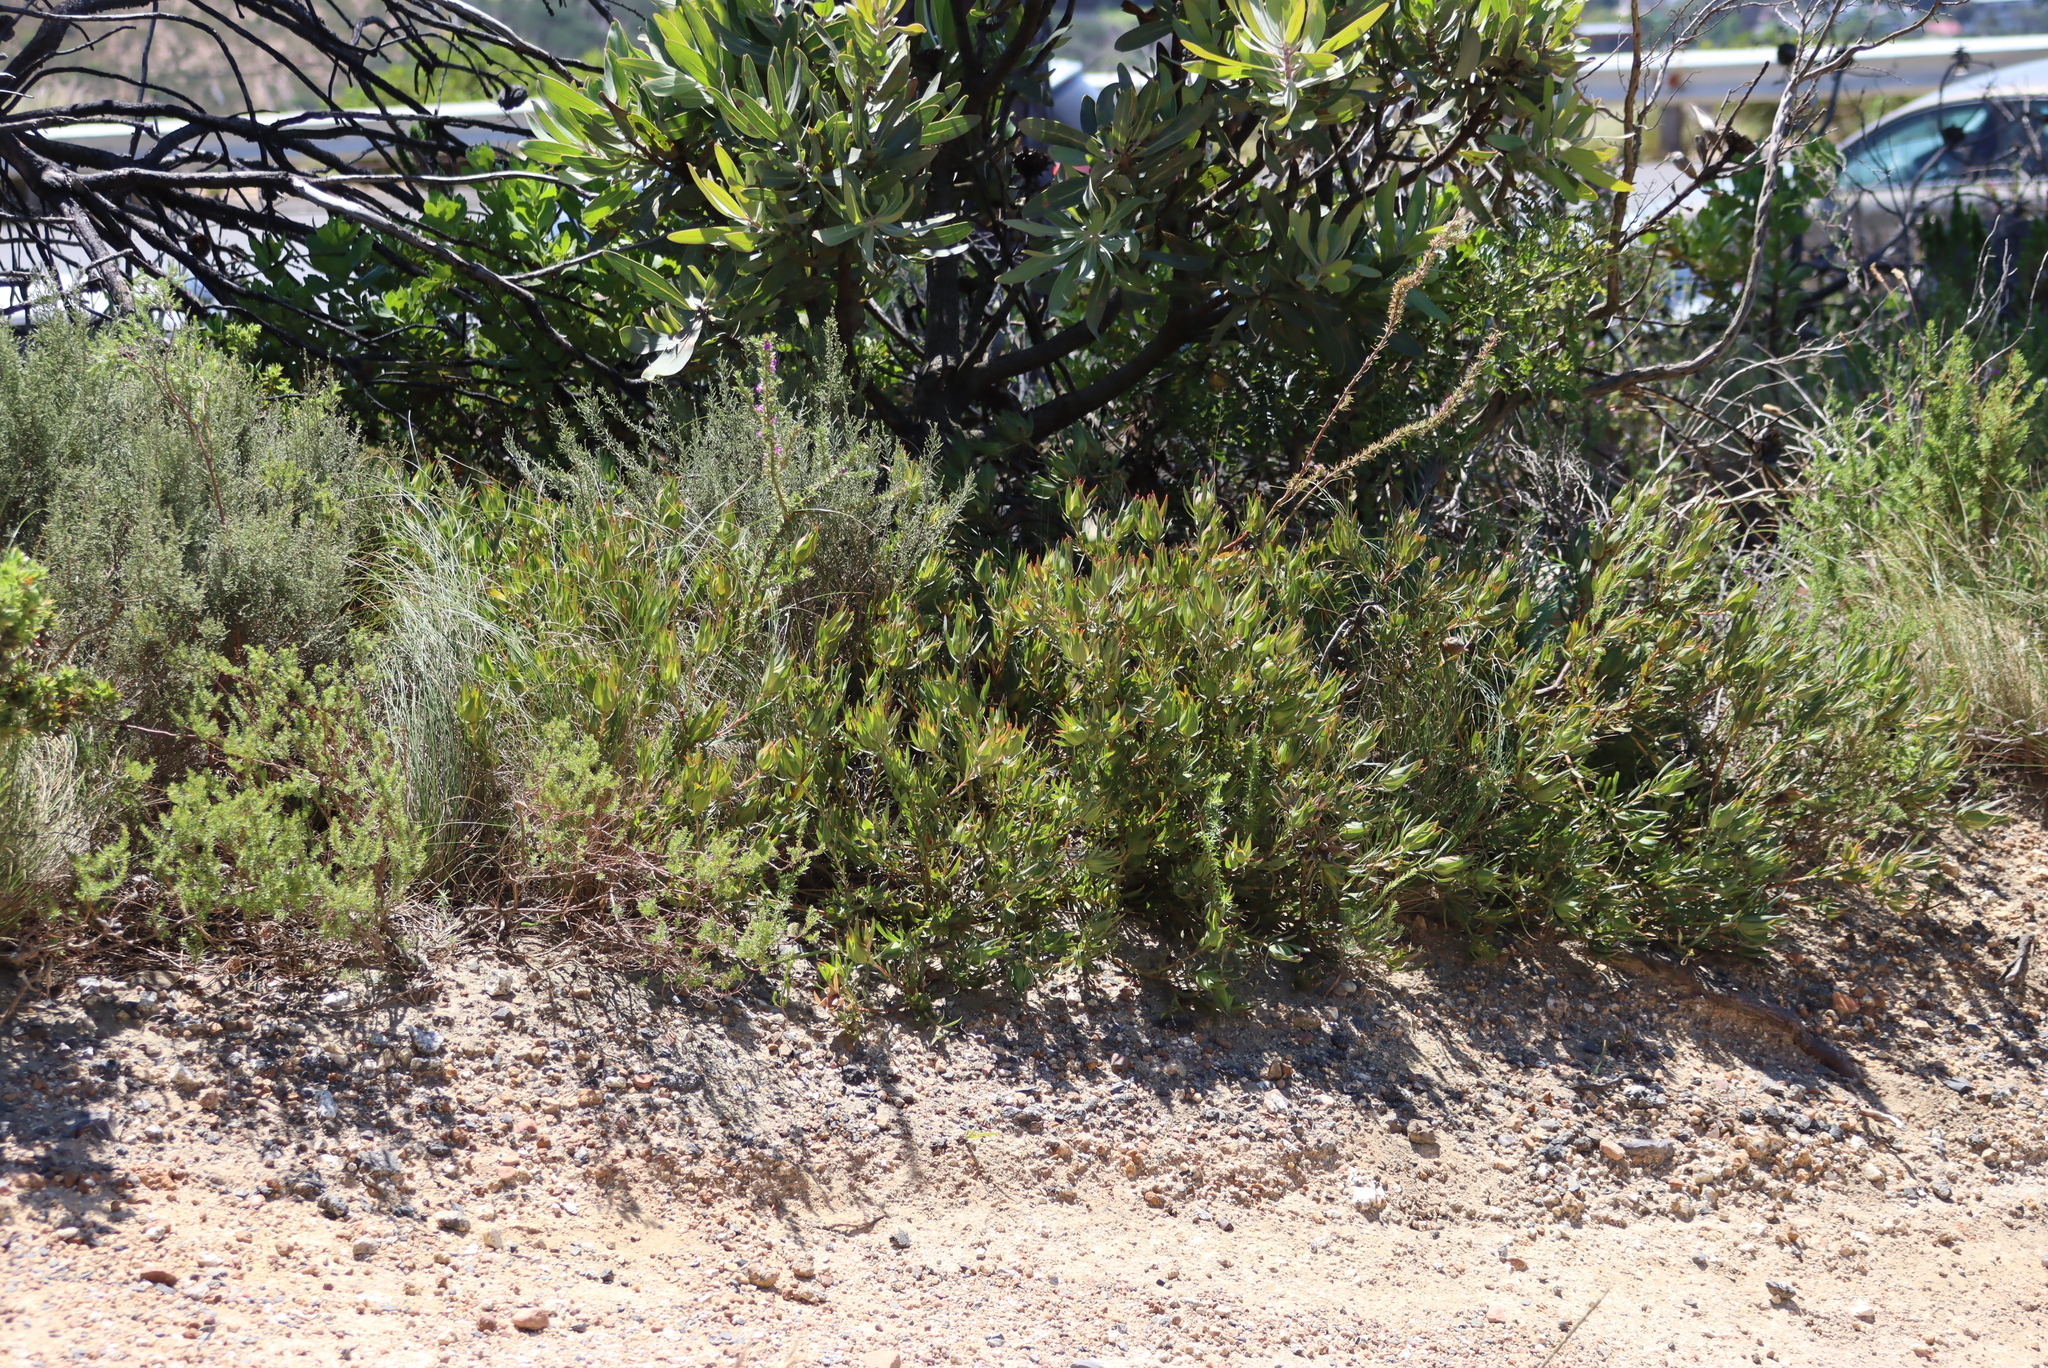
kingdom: Plantae
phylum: Tracheophyta
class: Magnoliopsida
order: Proteales
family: Proteaceae
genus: Leucadendron
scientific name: Leucadendron salignum
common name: Common sunshine conebush
